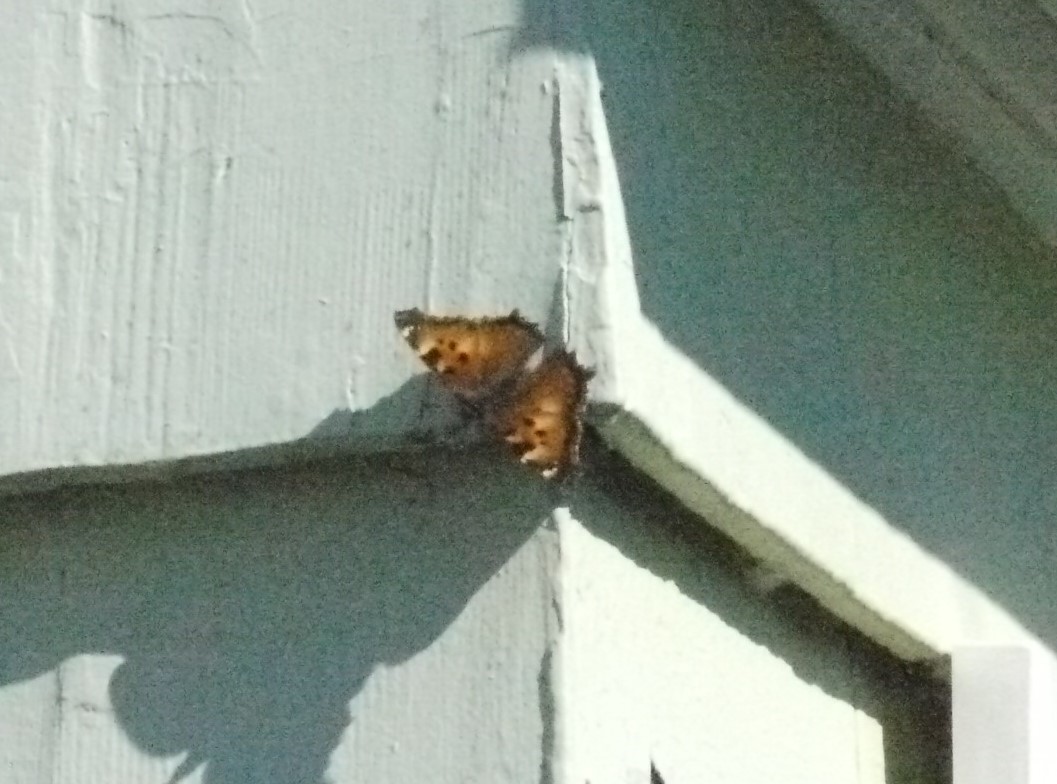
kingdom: Animalia
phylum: Arthropoda
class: Insecta
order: Lepidoptera
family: Nymphalidae
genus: Nymphalis
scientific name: Nymphalis californica
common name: California tortoiseshell
